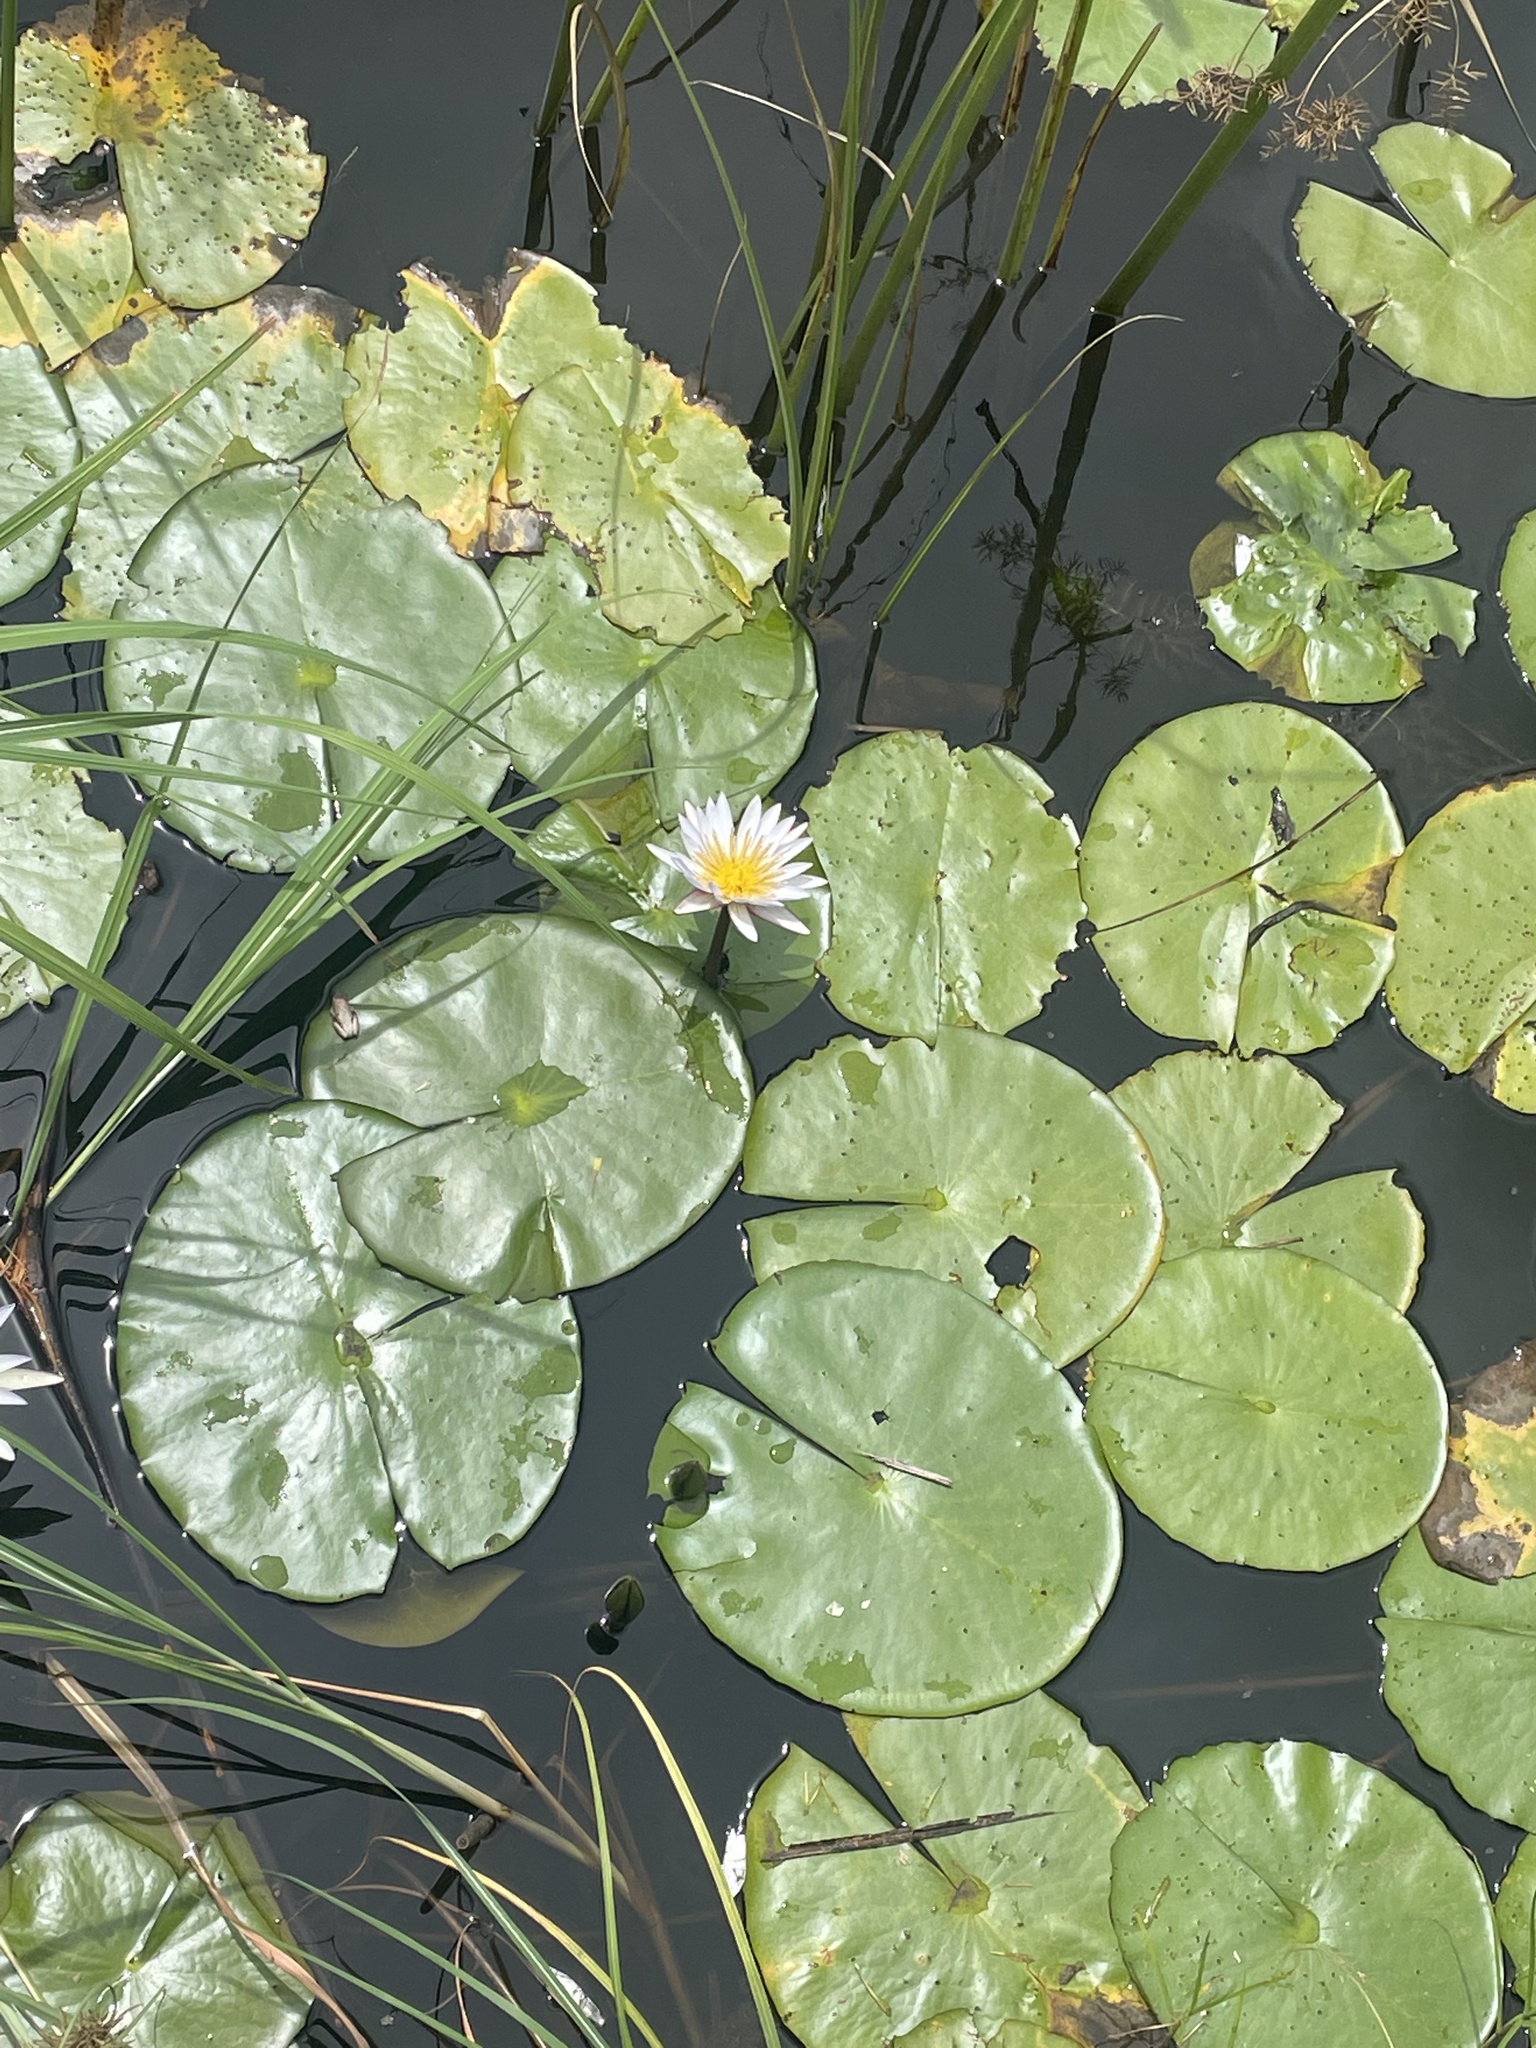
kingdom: Plantae
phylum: Tracheophyta
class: Magnoliopsida
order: Nymphaeales
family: Nymphaeaceae
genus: Nymphaea
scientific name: Nymphaea nouchali
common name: Blue lotus
